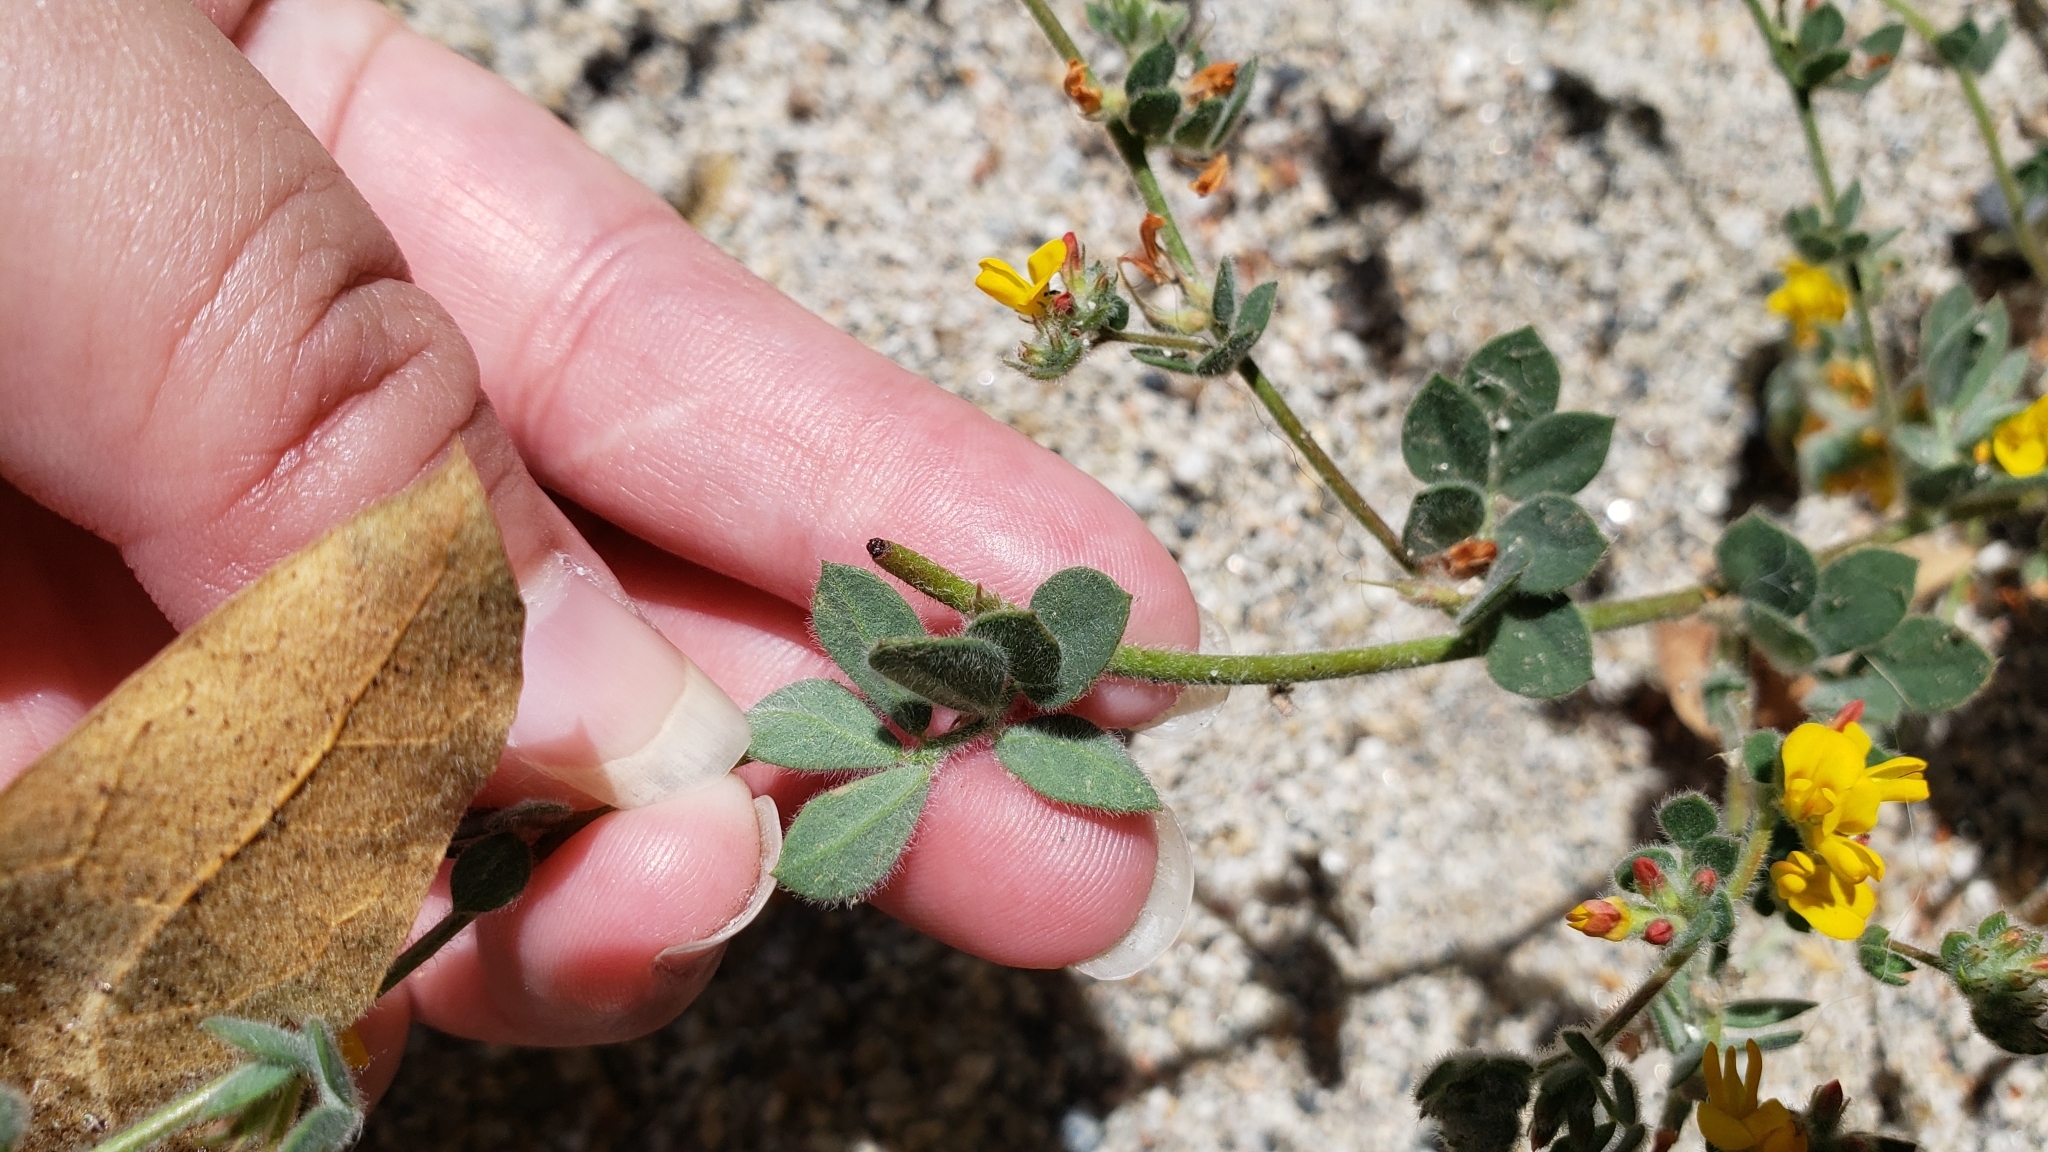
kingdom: Plantae
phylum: Tracheophyta
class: Magnoliopsida
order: Fabales
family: Fabaceae
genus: Acmispon
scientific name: Acmispon tomentosus
